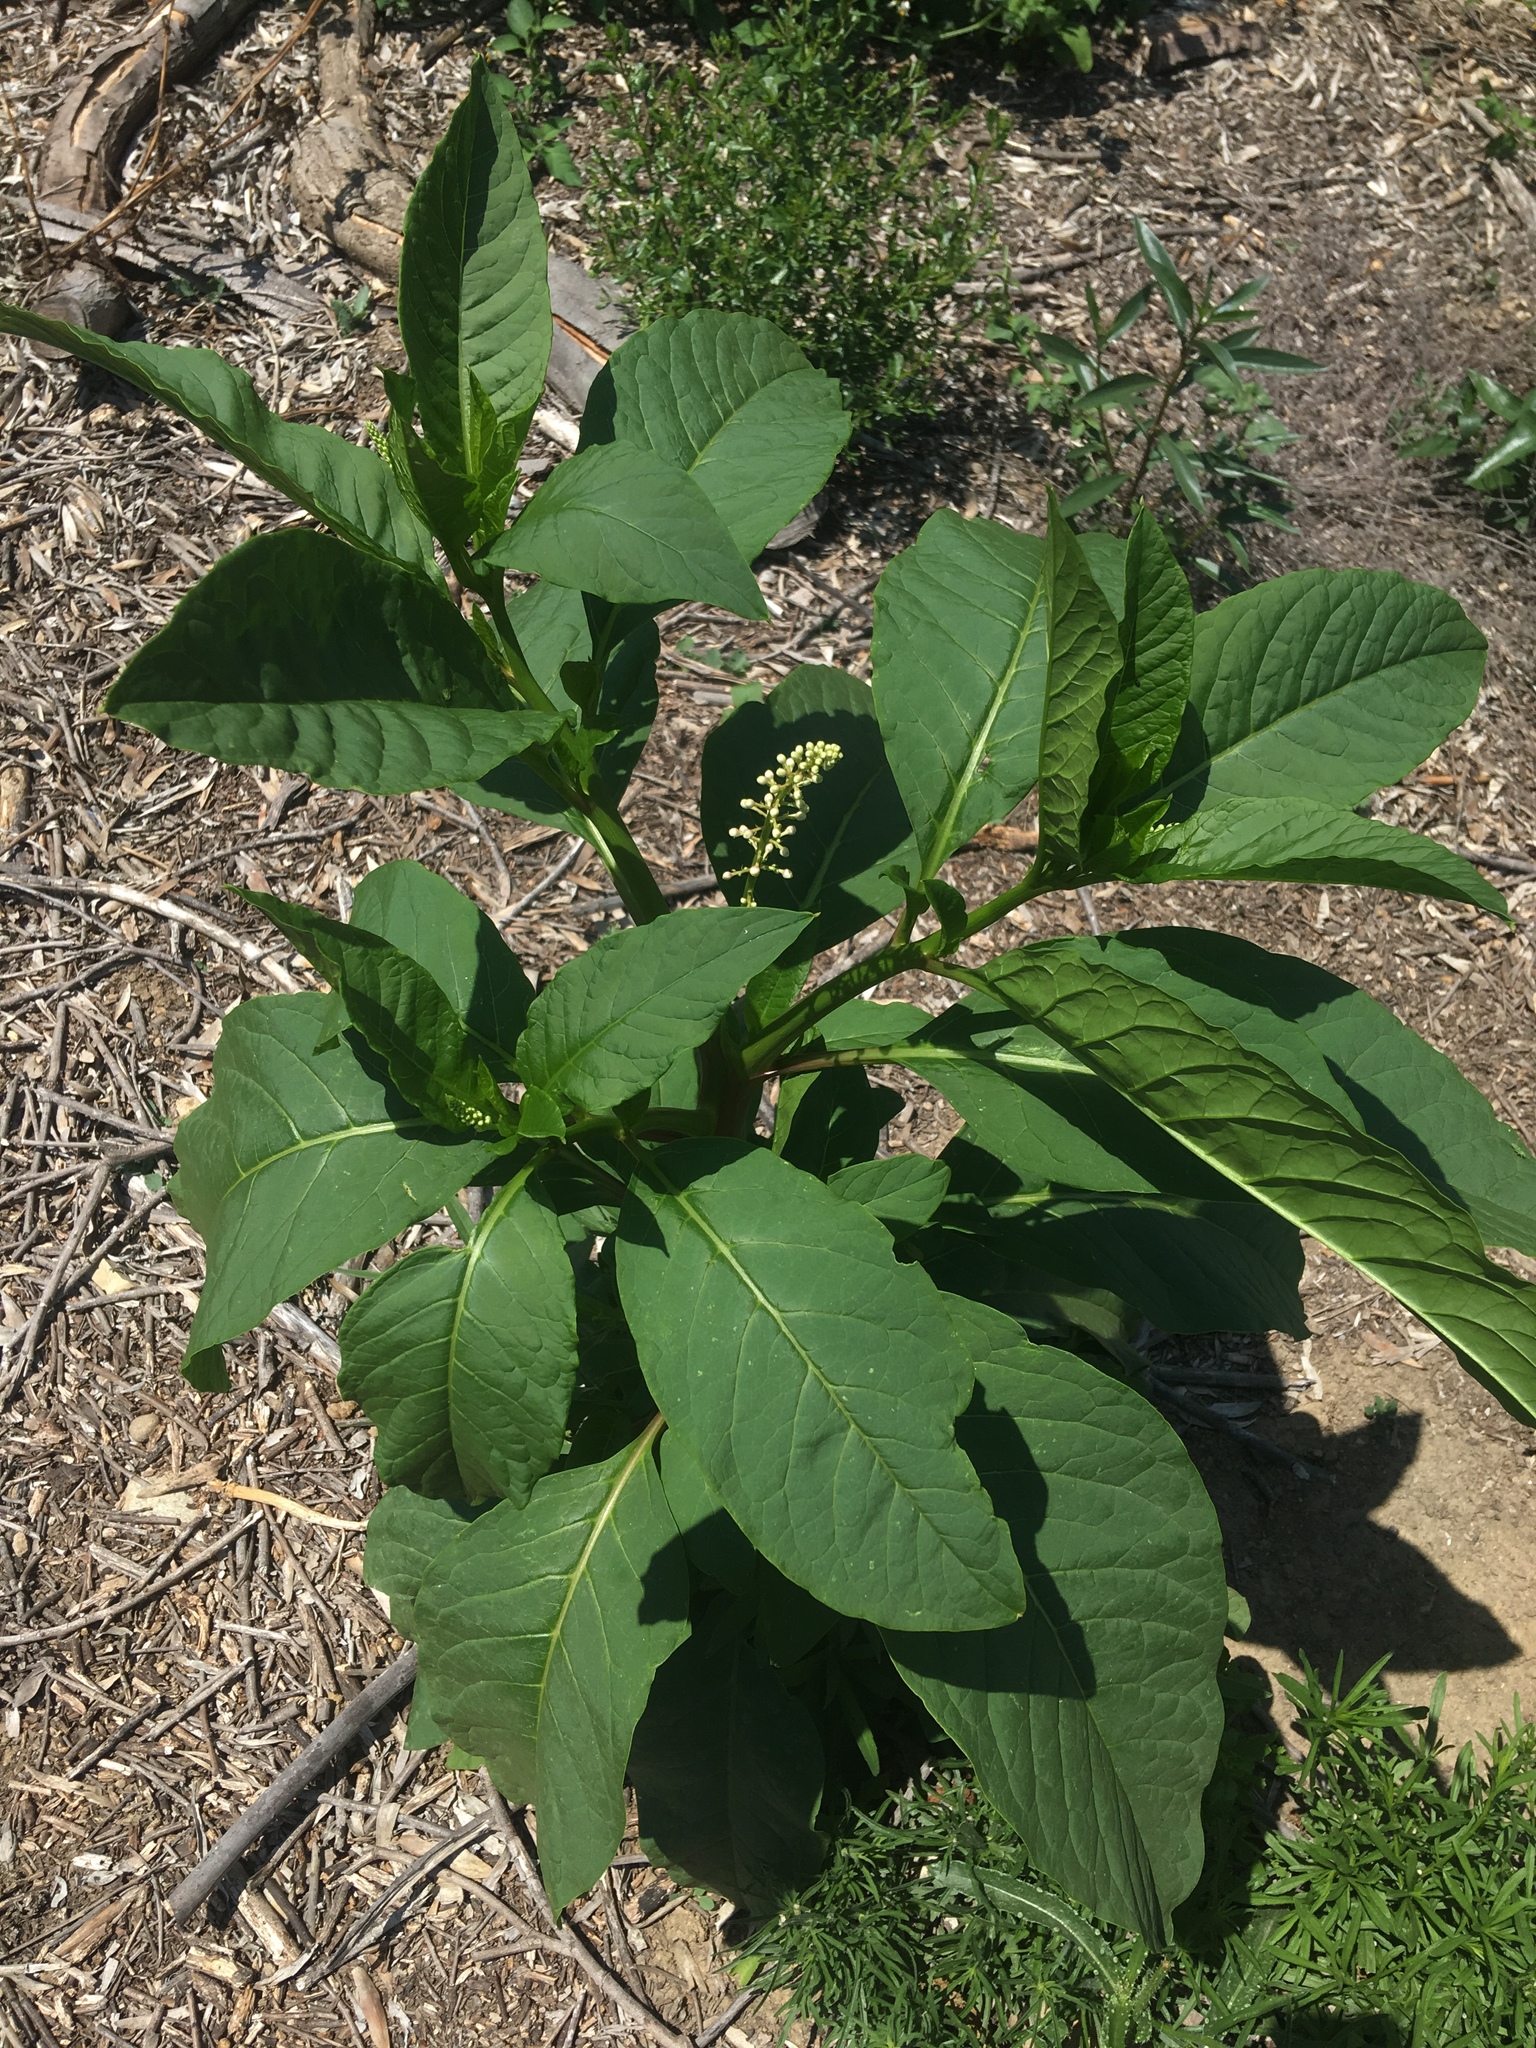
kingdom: Plantae
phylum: Tracheophyta
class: Magnoliopsida
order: Caryophyllales
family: Phytolaccaceae
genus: Phytolacca
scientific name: Phytolacca americana
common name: American pokeweed
